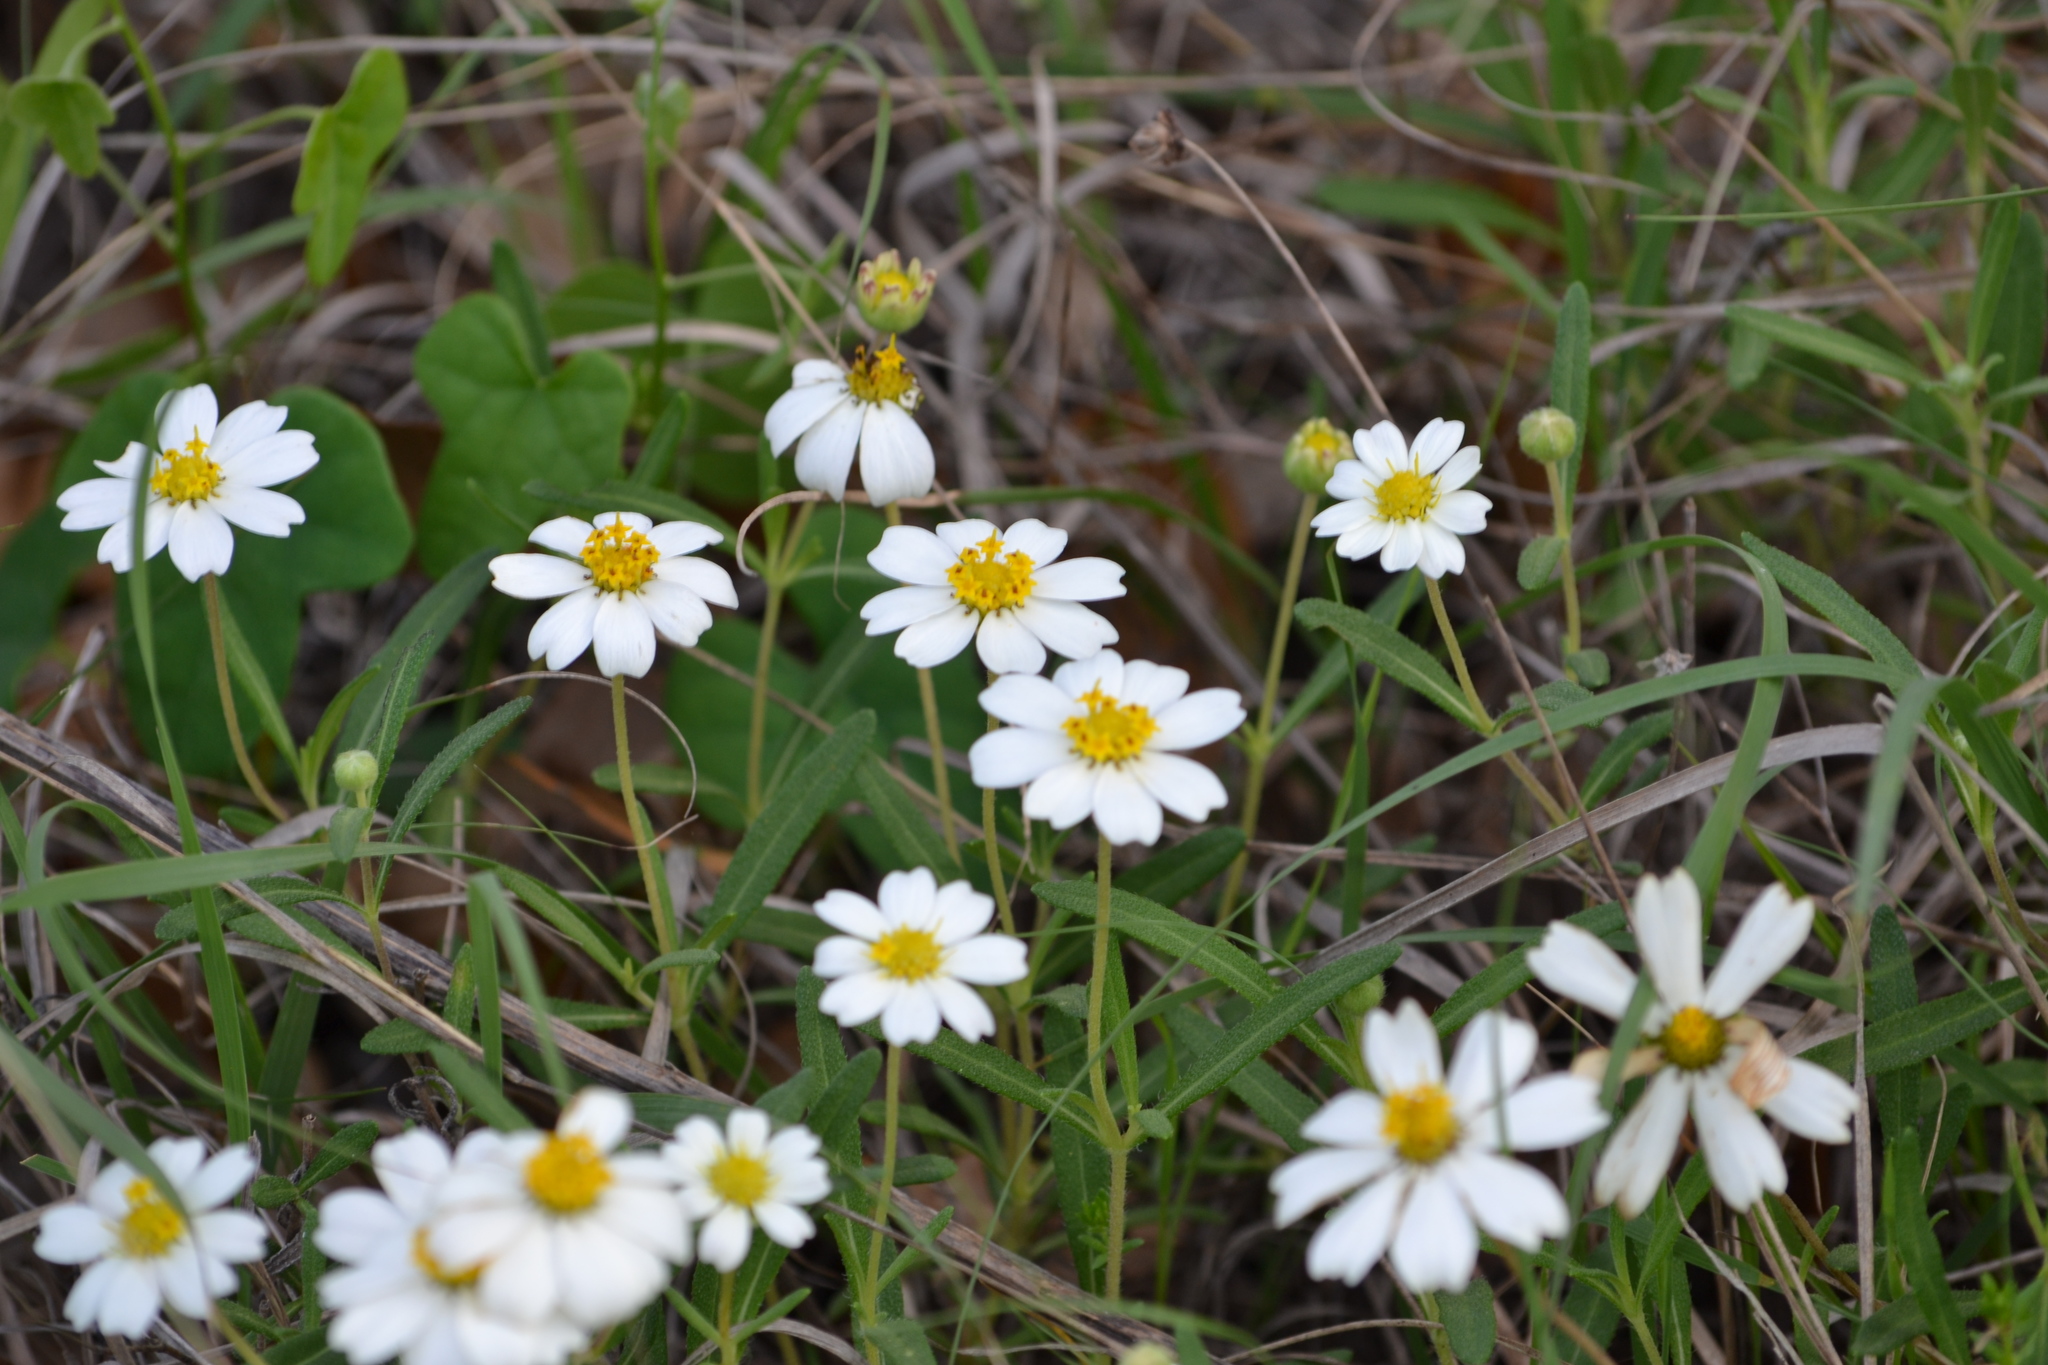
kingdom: Plantae
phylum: Tracheophyta
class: Magnoliopsida
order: Asterales
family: Asteraceae
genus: Melampodium
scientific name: Melampodium leucanthum
